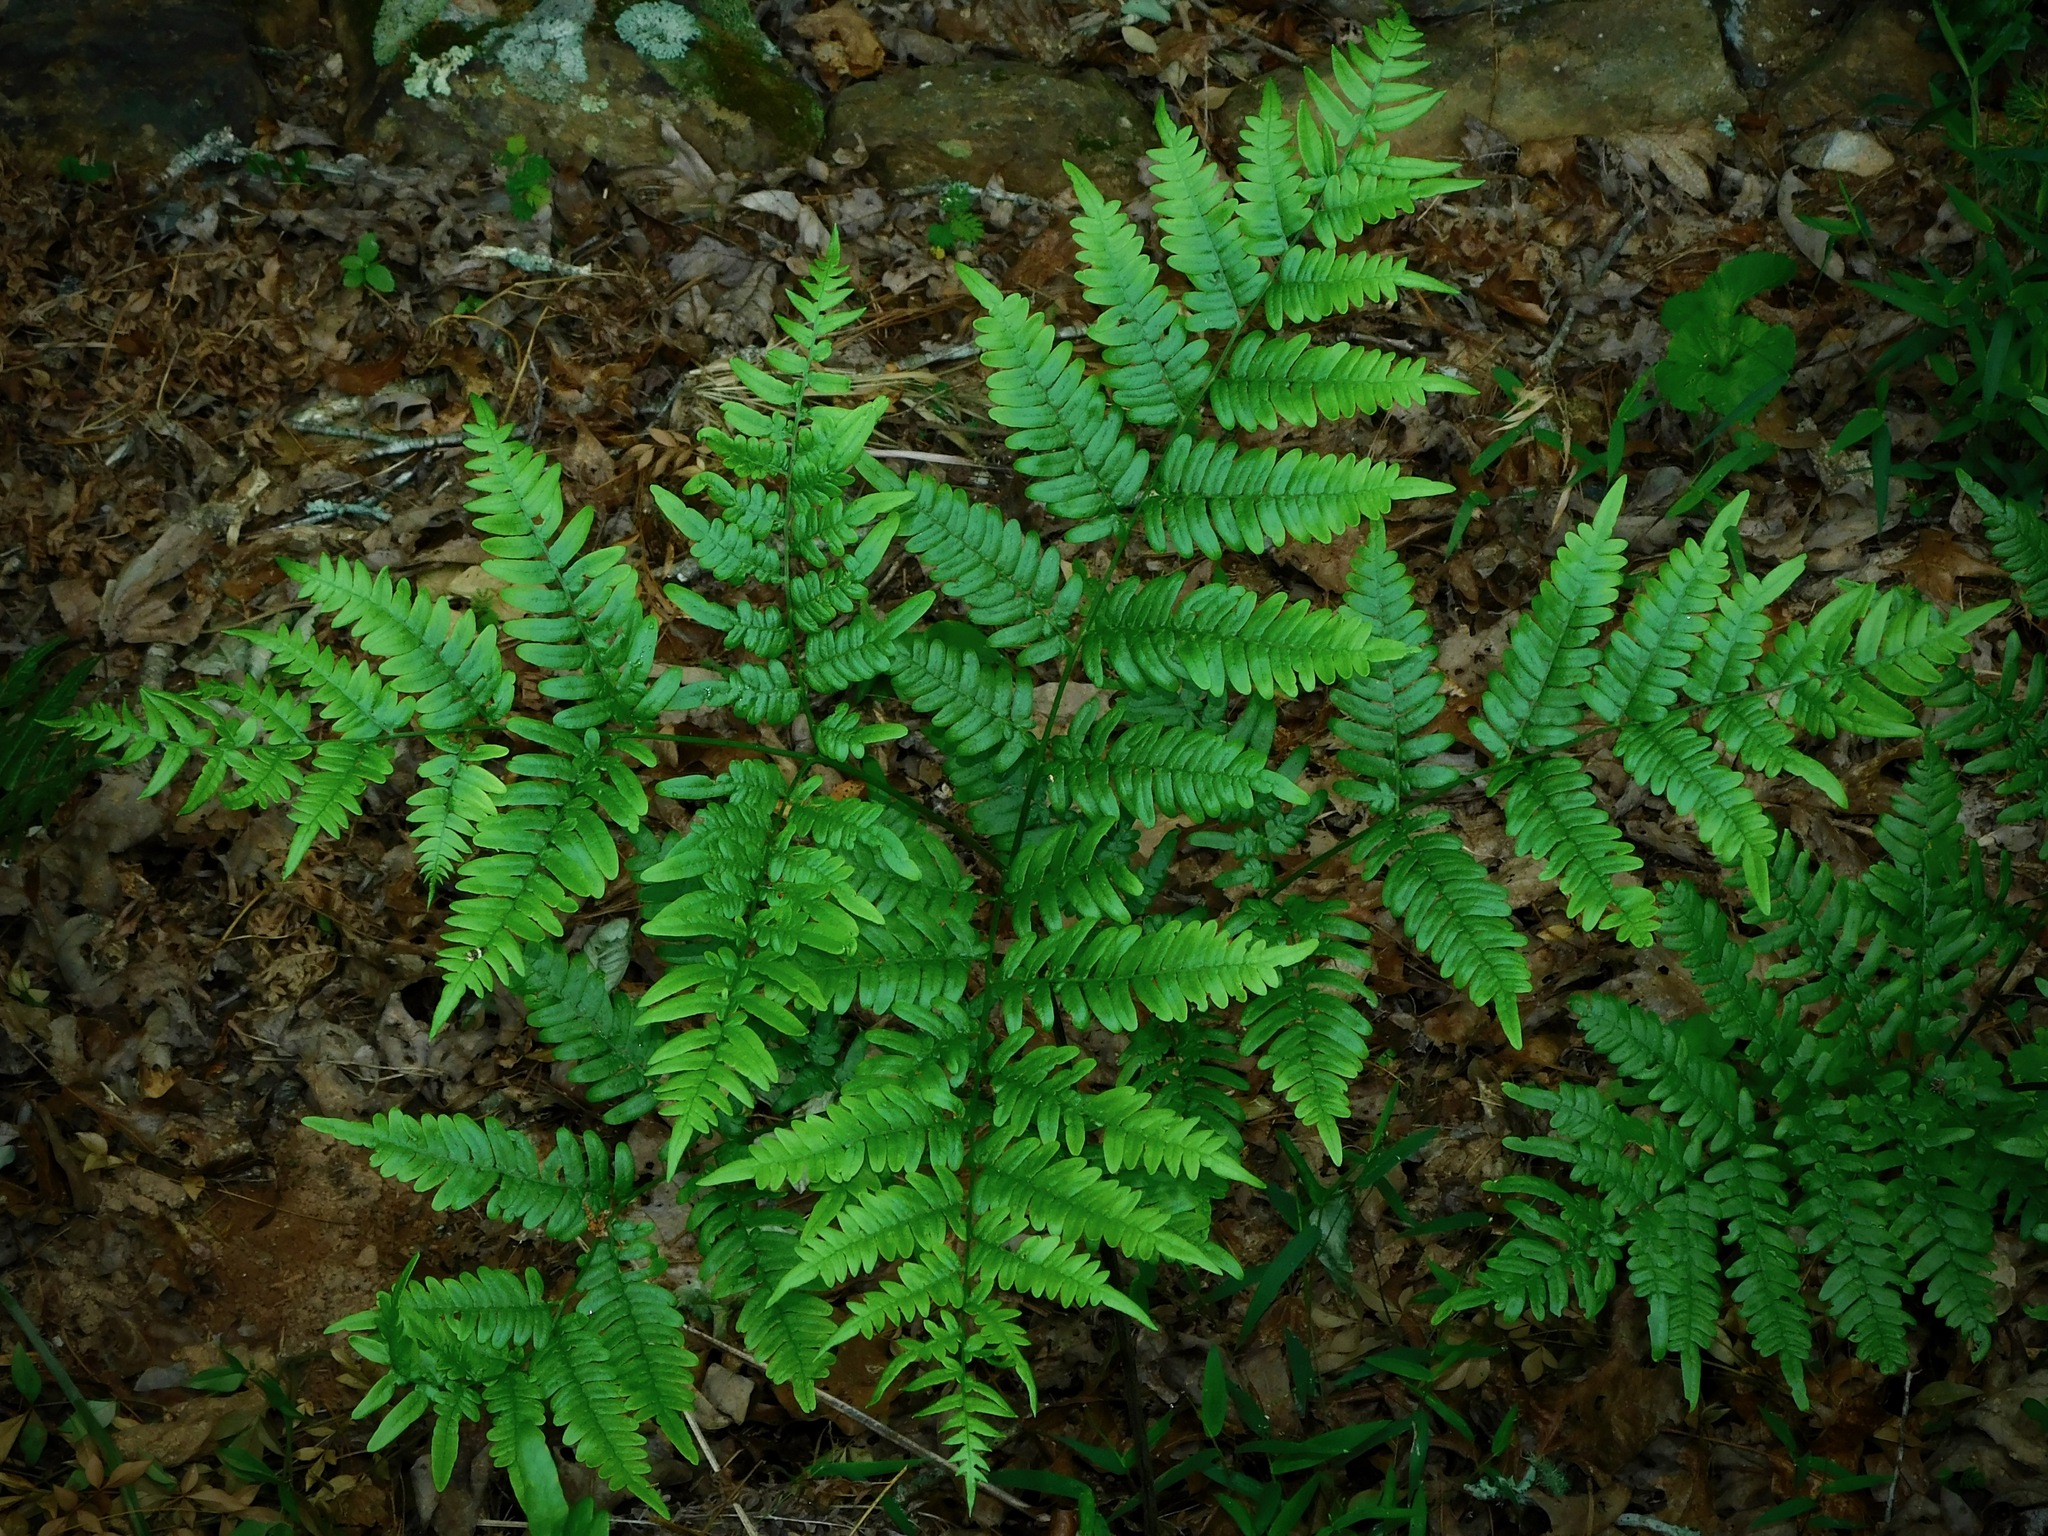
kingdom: Plantae
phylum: Tracheophyta
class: Polypodiopsida
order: Polypodiales
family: Dennstaedtiaceae
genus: Pteridium
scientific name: Pteridium aquilinum
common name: Bracken
